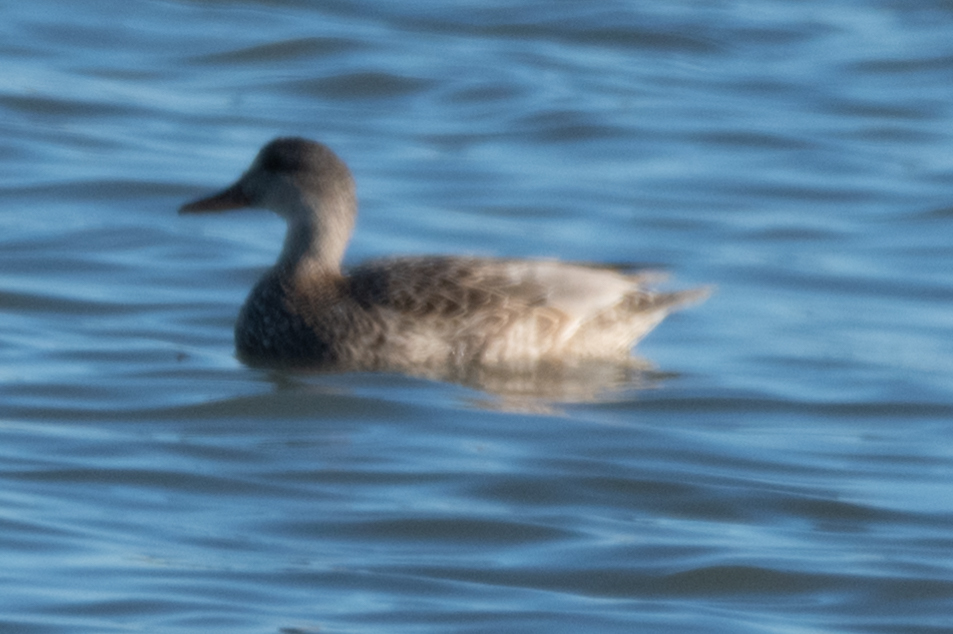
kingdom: Animalia
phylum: Chordata
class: Aves
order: Anseriformes
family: Anatidae
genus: Mareca
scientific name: Mareca strepera
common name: Gadwall
